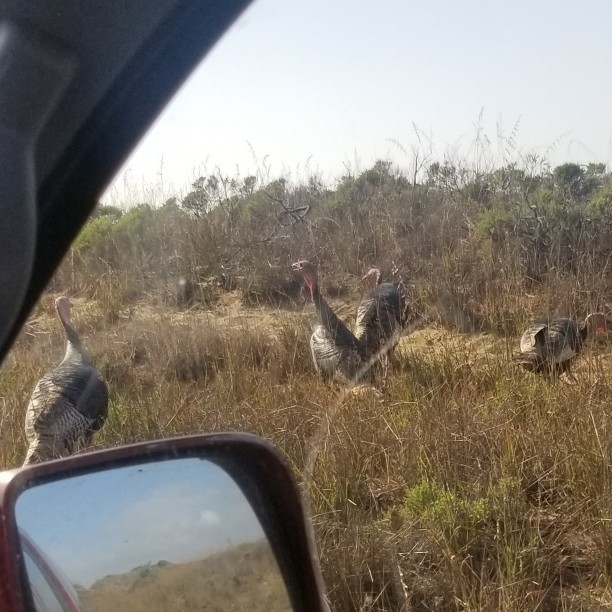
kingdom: Animalia
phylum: Chordata
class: Aves
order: Galliformes
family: Phasianidae
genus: Meleagris
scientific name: Meleagris gallopavo
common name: Wild turkey
